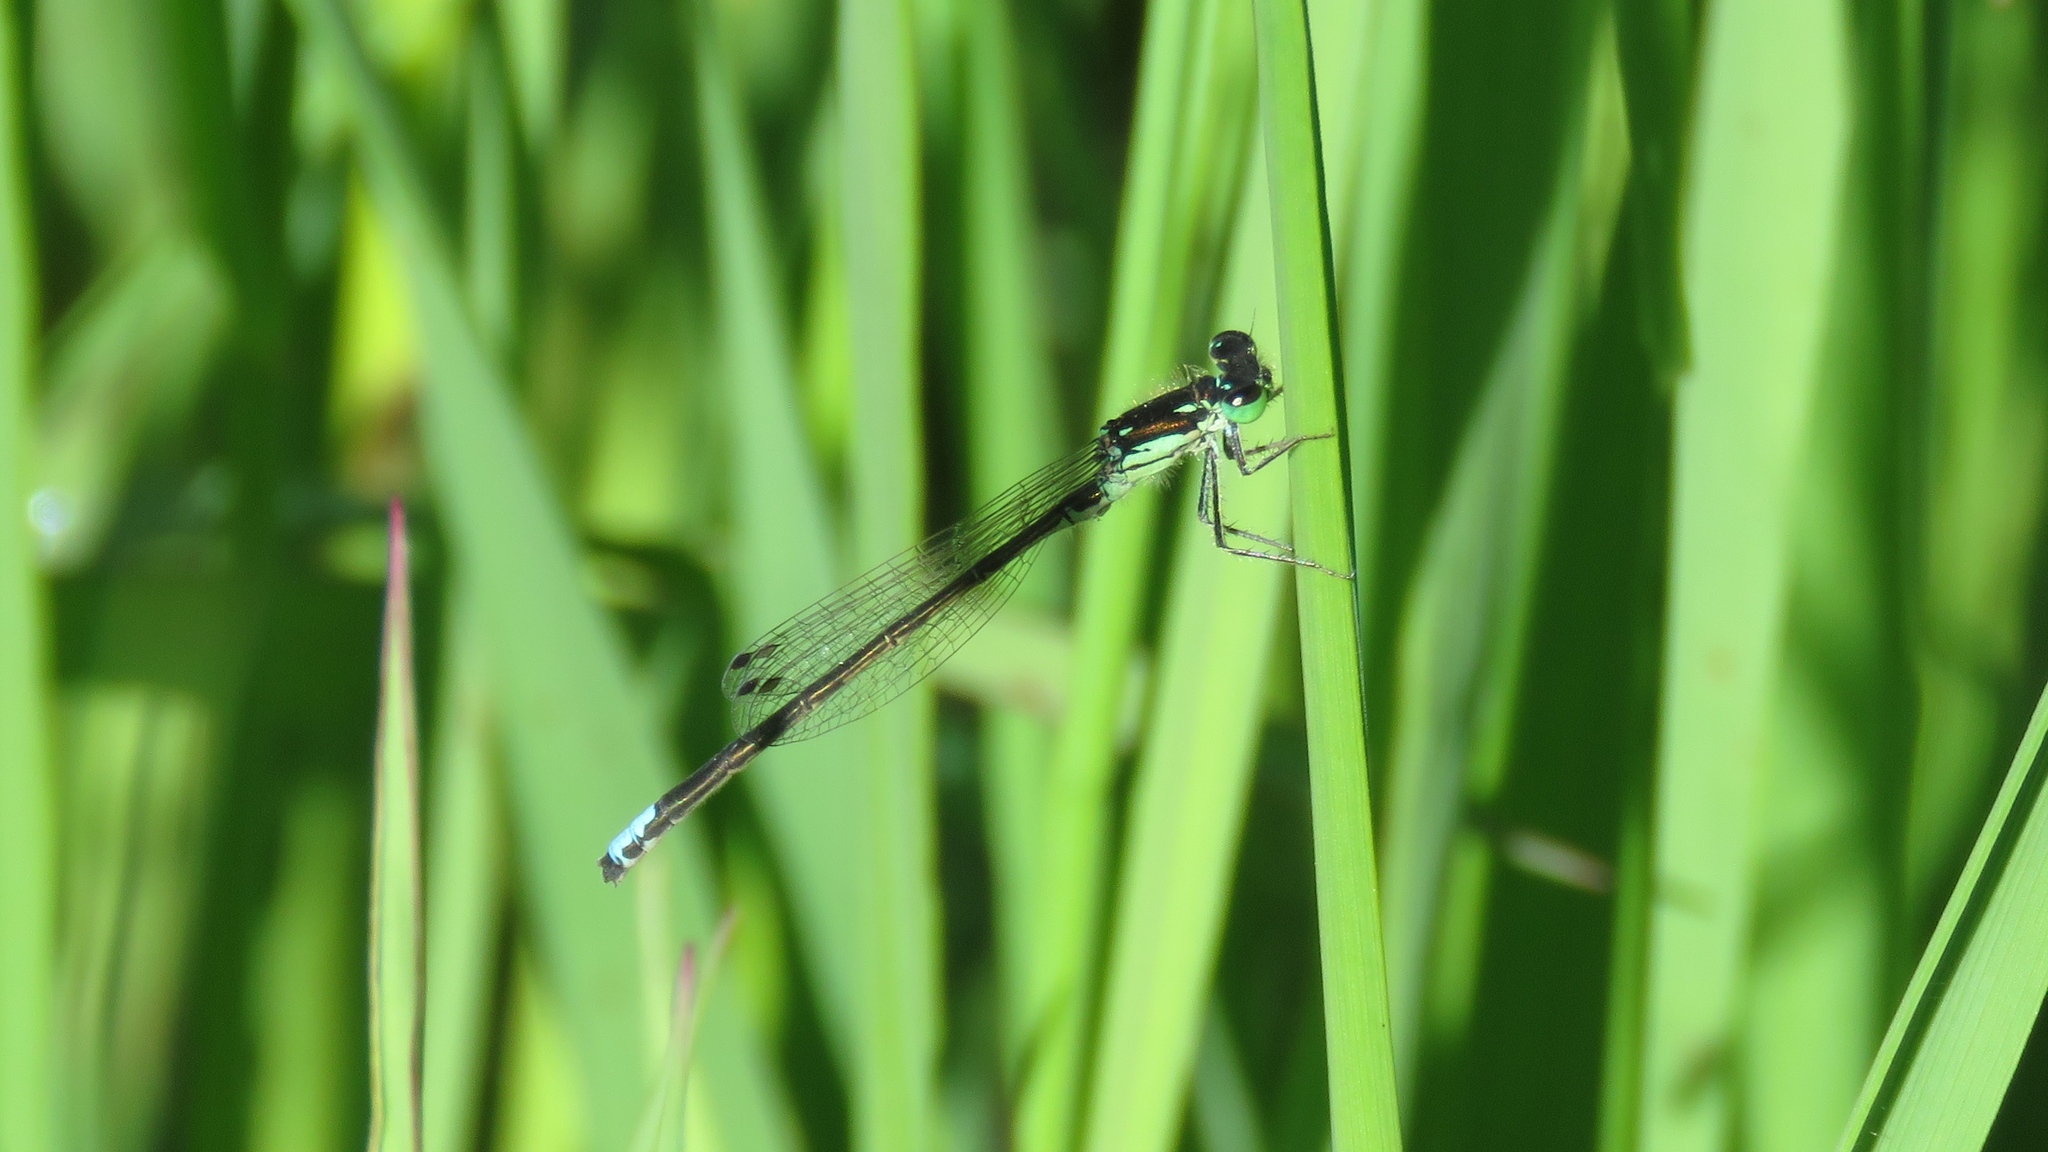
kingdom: Animalia
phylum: Arthropoda
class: Insecta
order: Odonata
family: Coenagrionidae
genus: Ischnura
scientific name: Ischnura verticalis
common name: Eastern forktail
